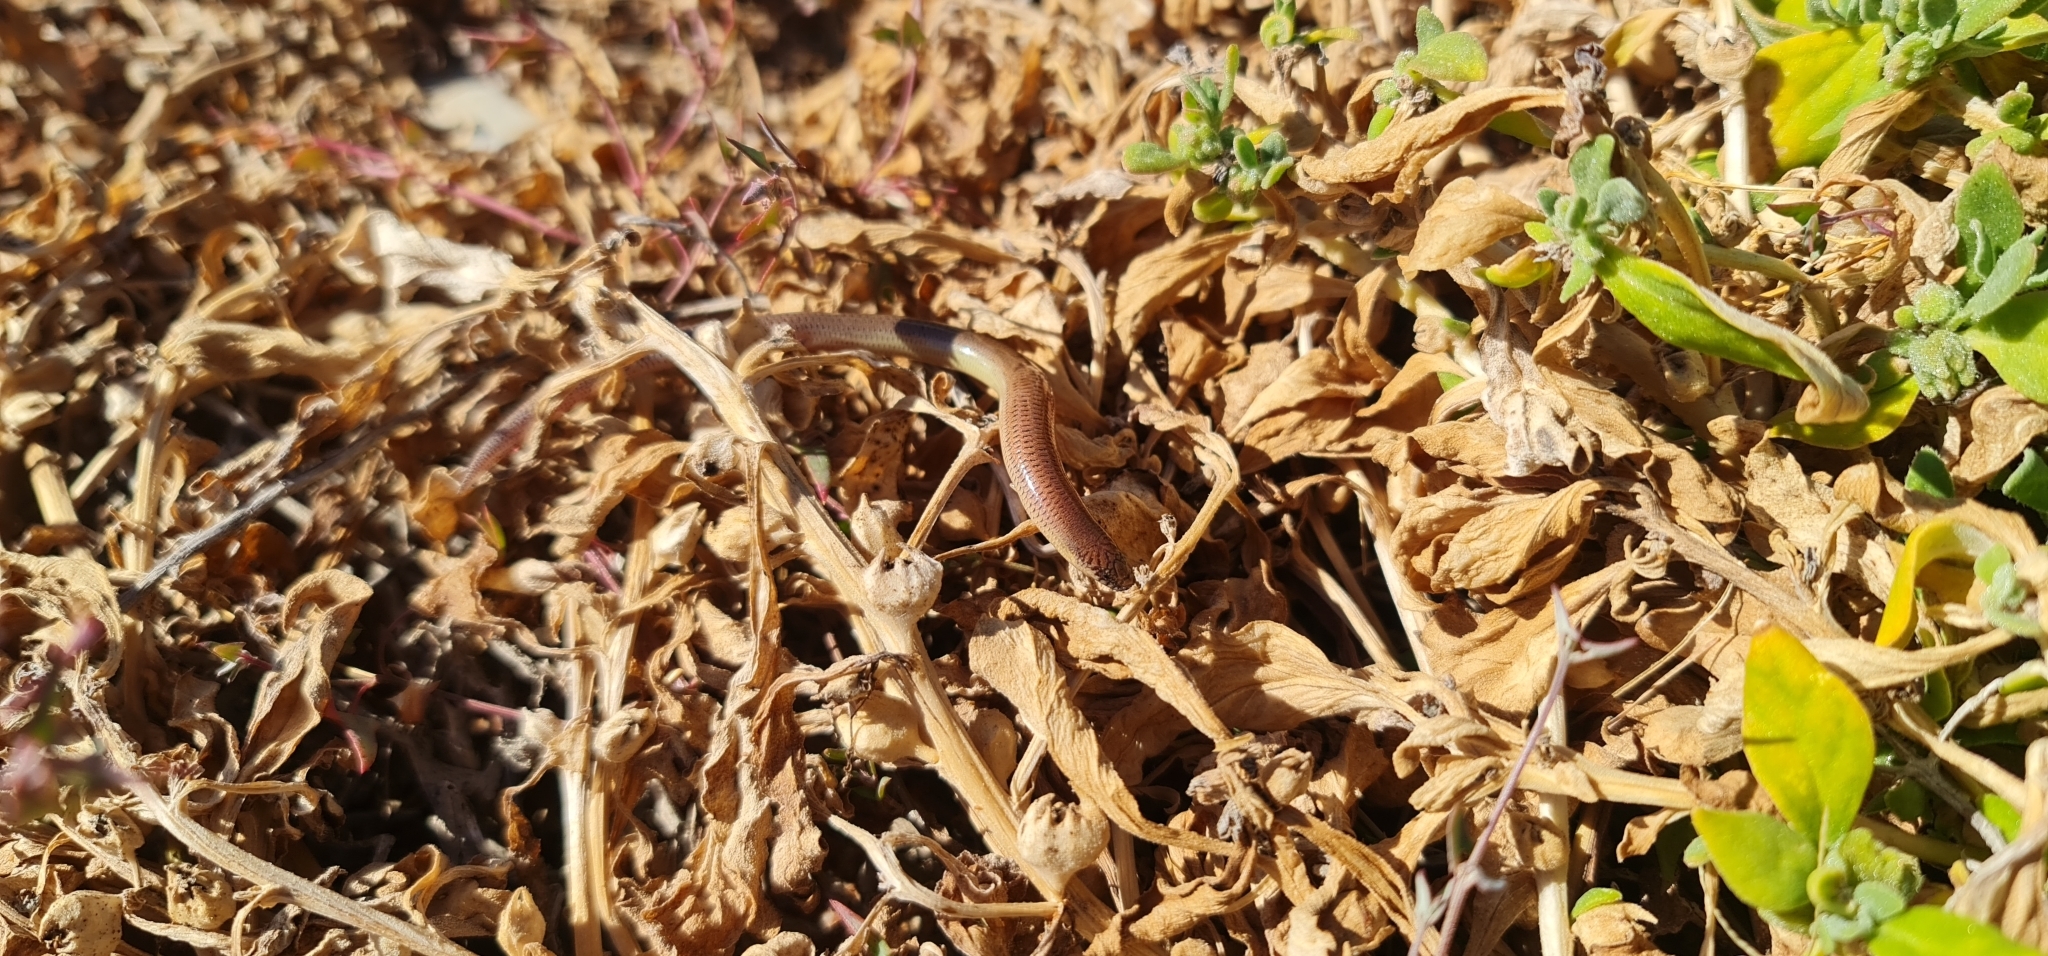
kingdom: Animalia
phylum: Chordata
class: Squamata
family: Scincidae
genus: Lerista
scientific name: Lerista punctatovittata
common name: Eastern robust slider
